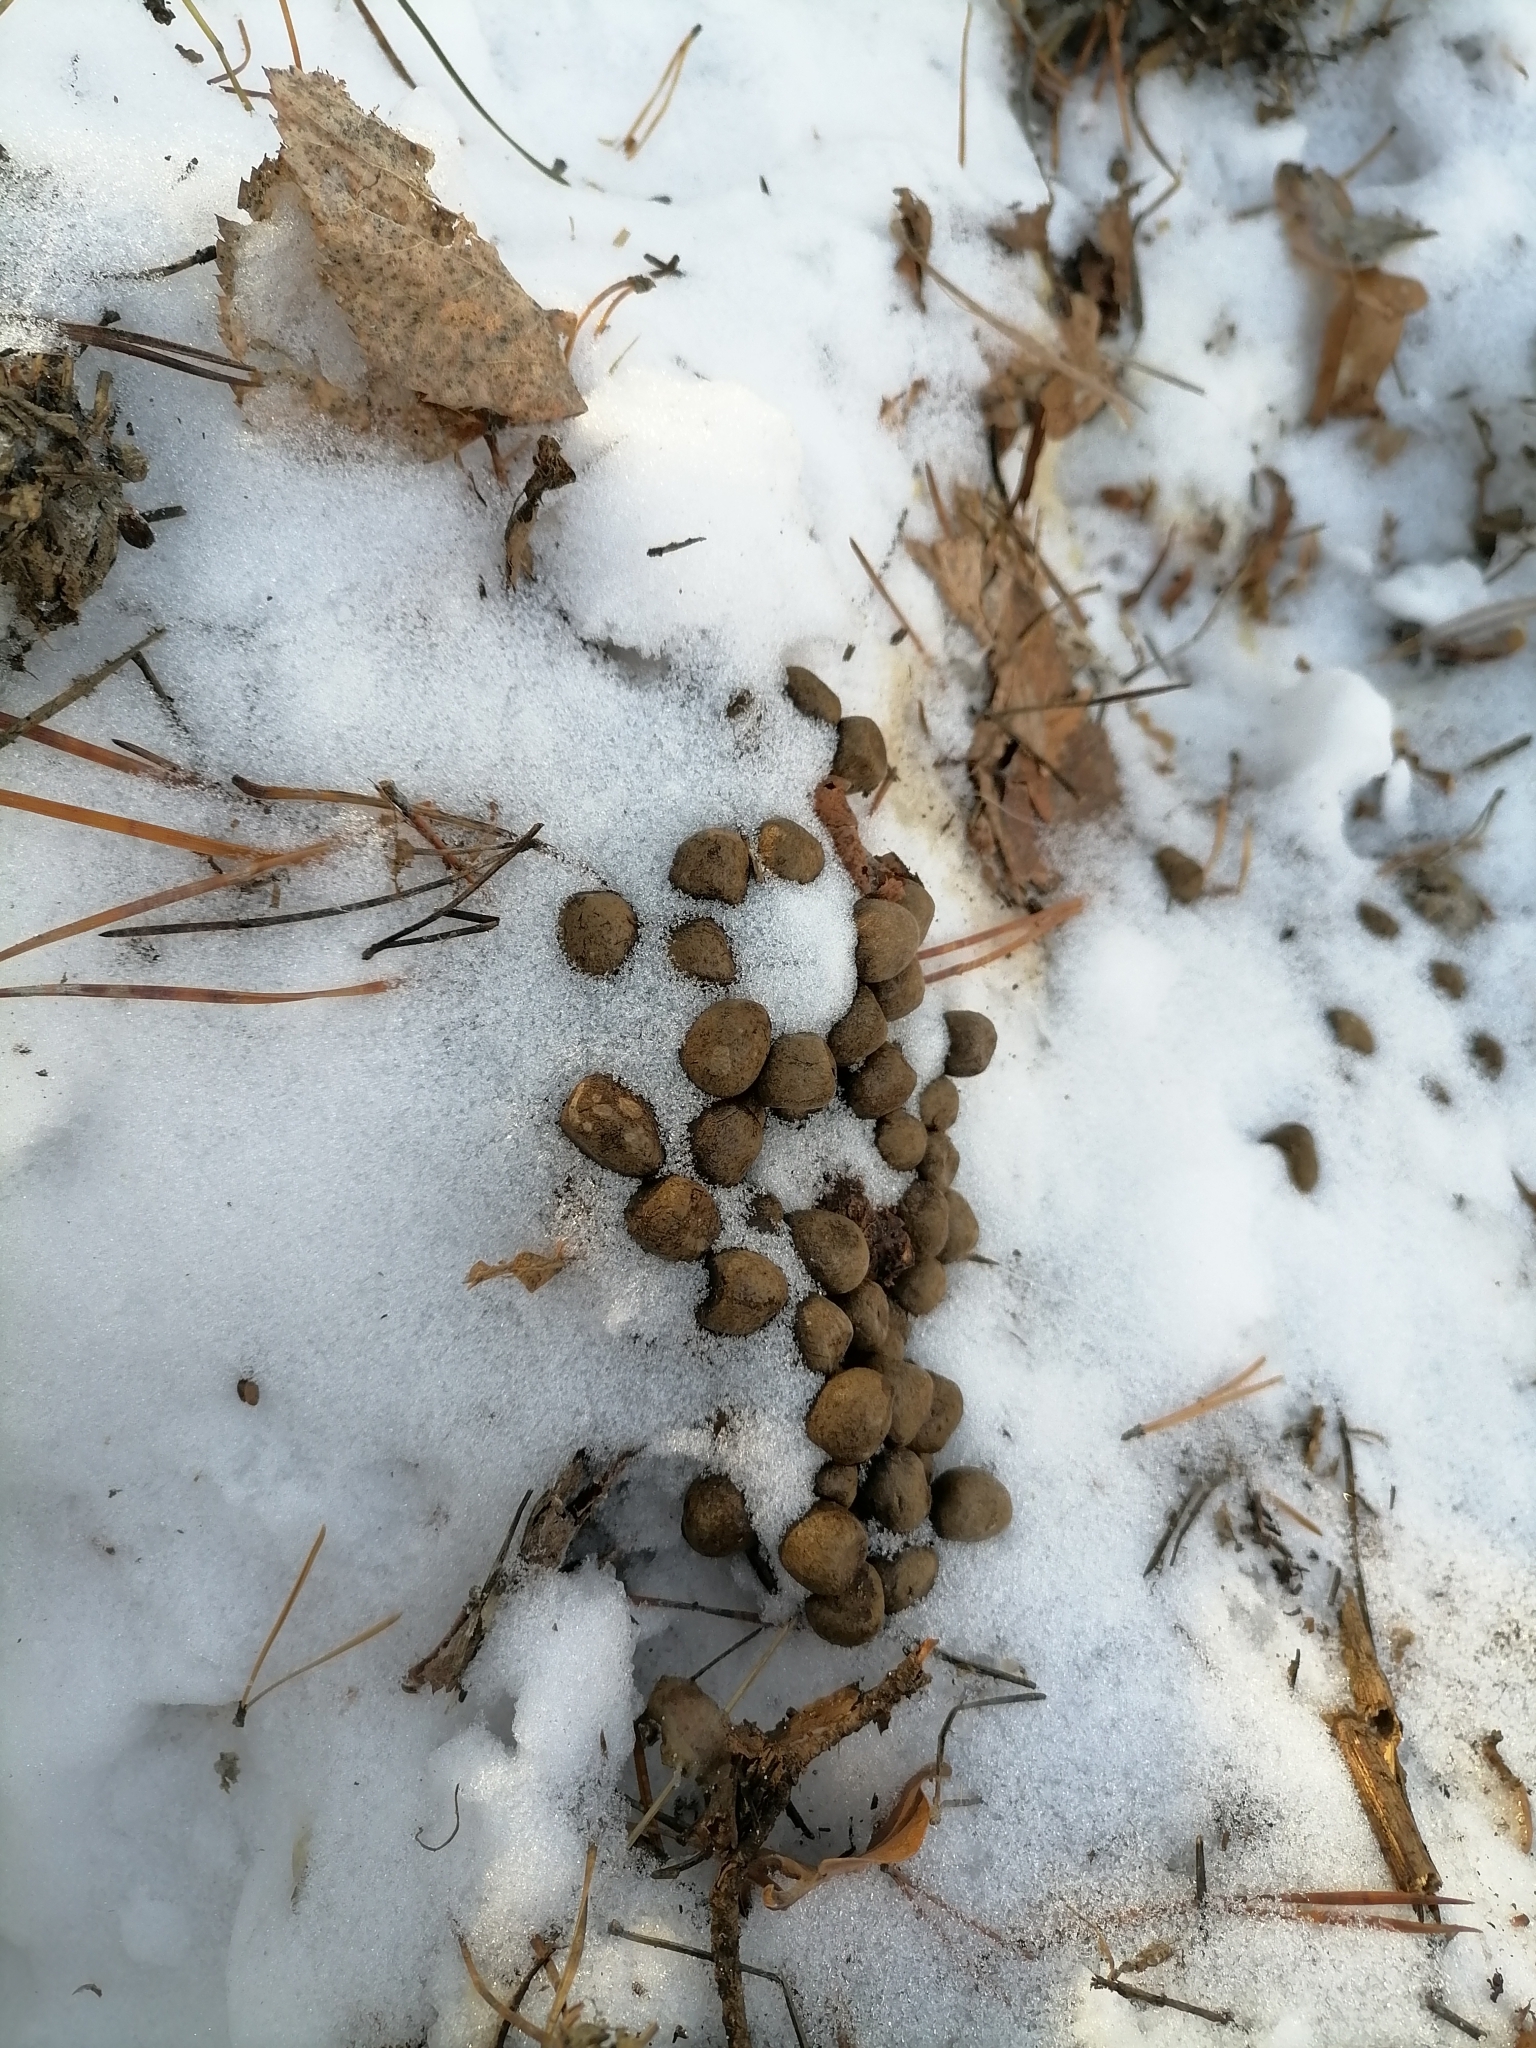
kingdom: Animalia
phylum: Chordata
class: Mammalia
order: Artiodactyla
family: Cervidae
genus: Capreolus
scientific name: Capreolus pygargus
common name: Siberian roe
